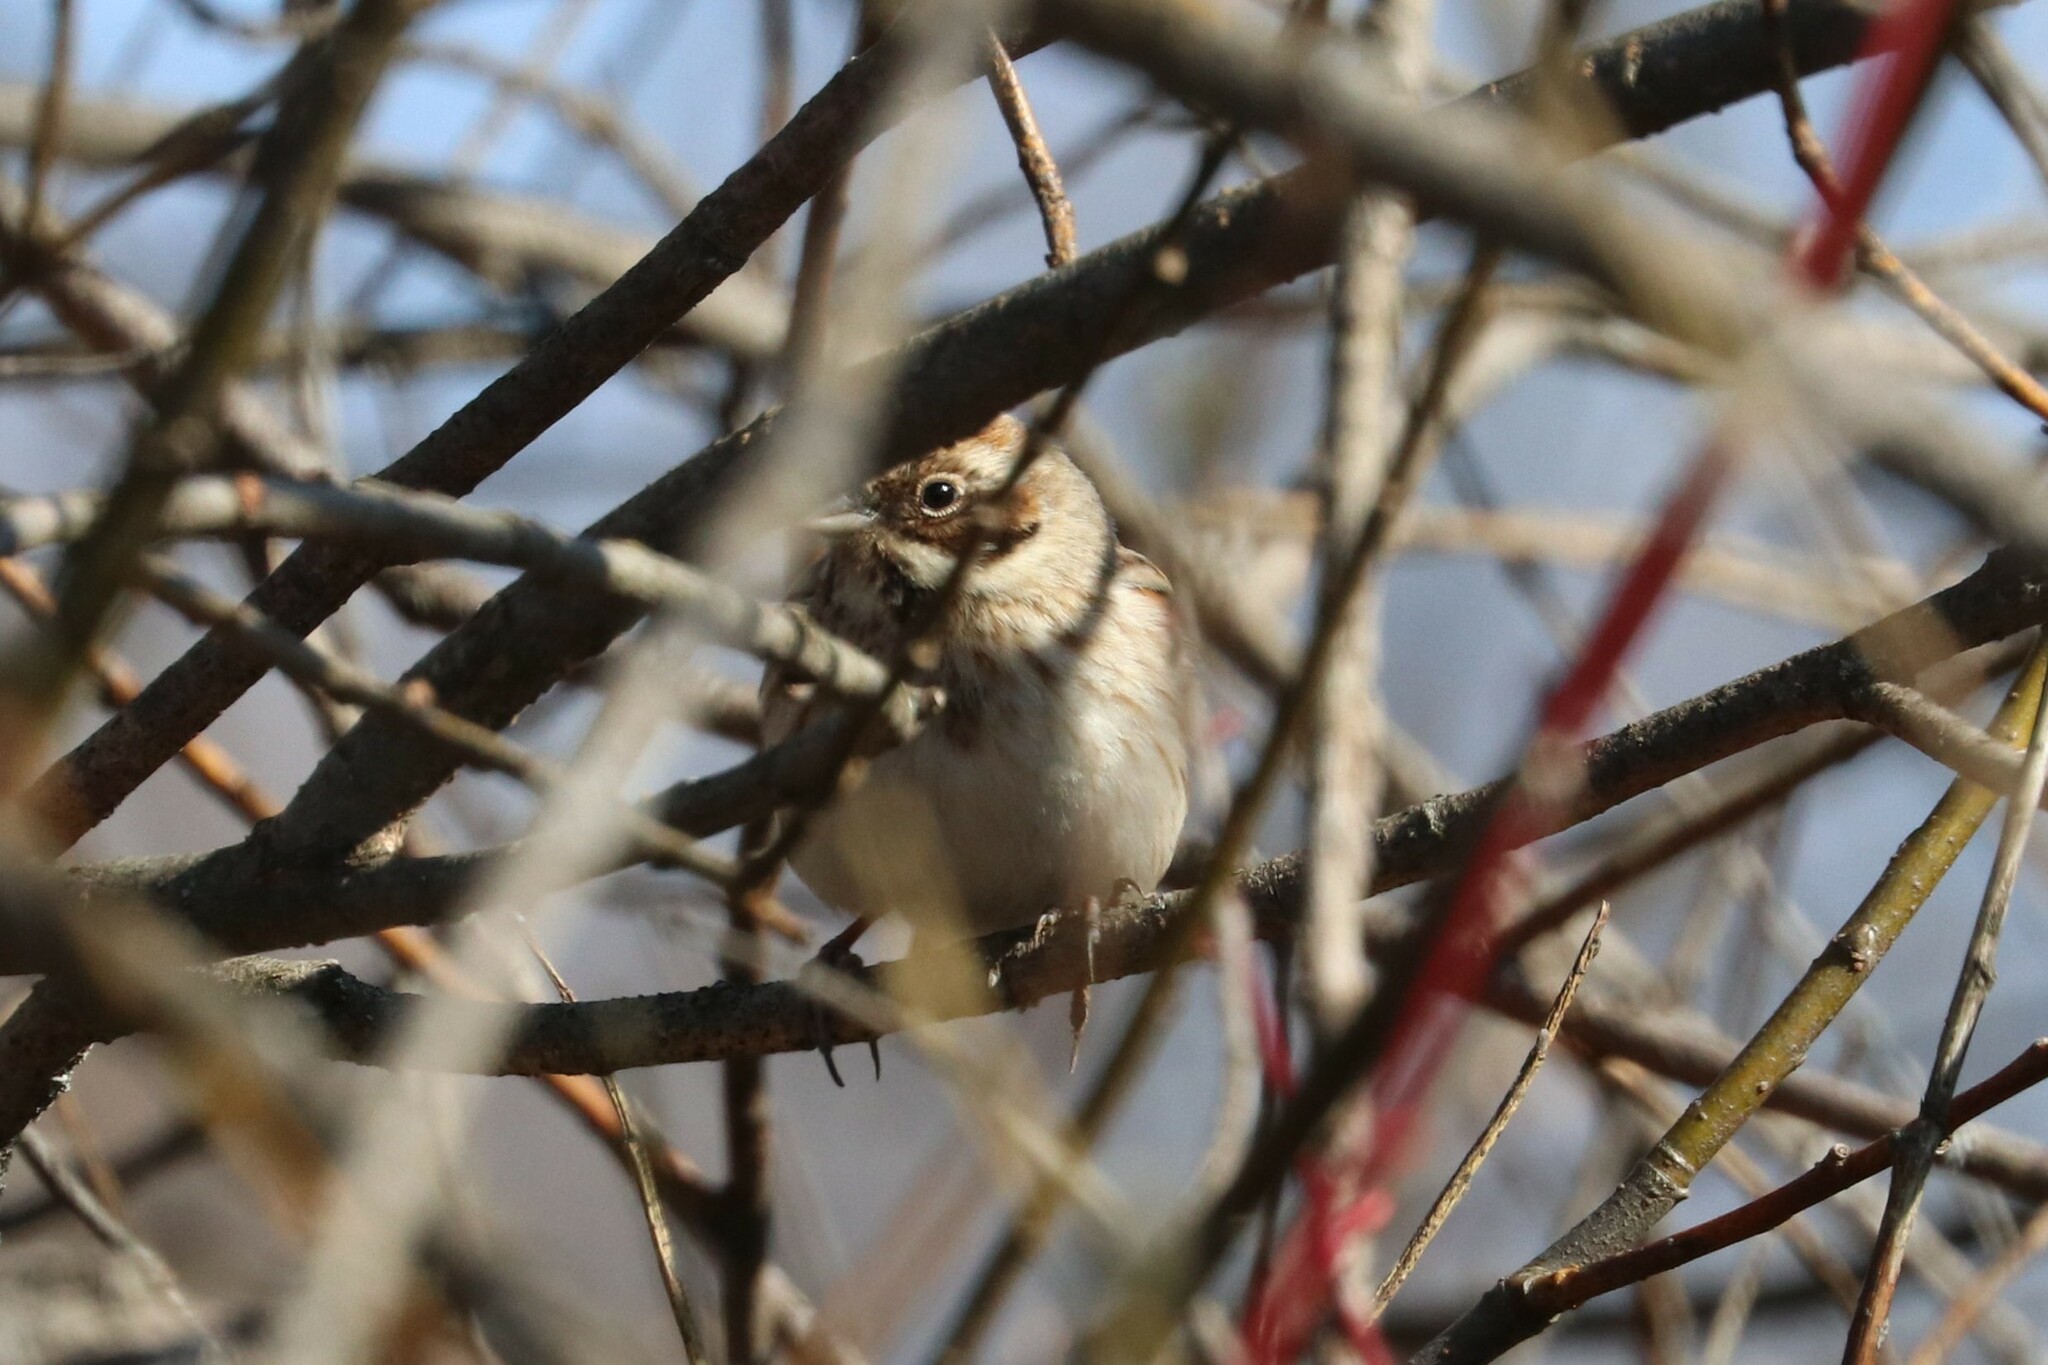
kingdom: Animalia
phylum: Chordata
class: Aves
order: Passeriformes
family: Emberizidae
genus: Emberiza
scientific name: Emberiza schoeniclus
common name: Reed bunting
